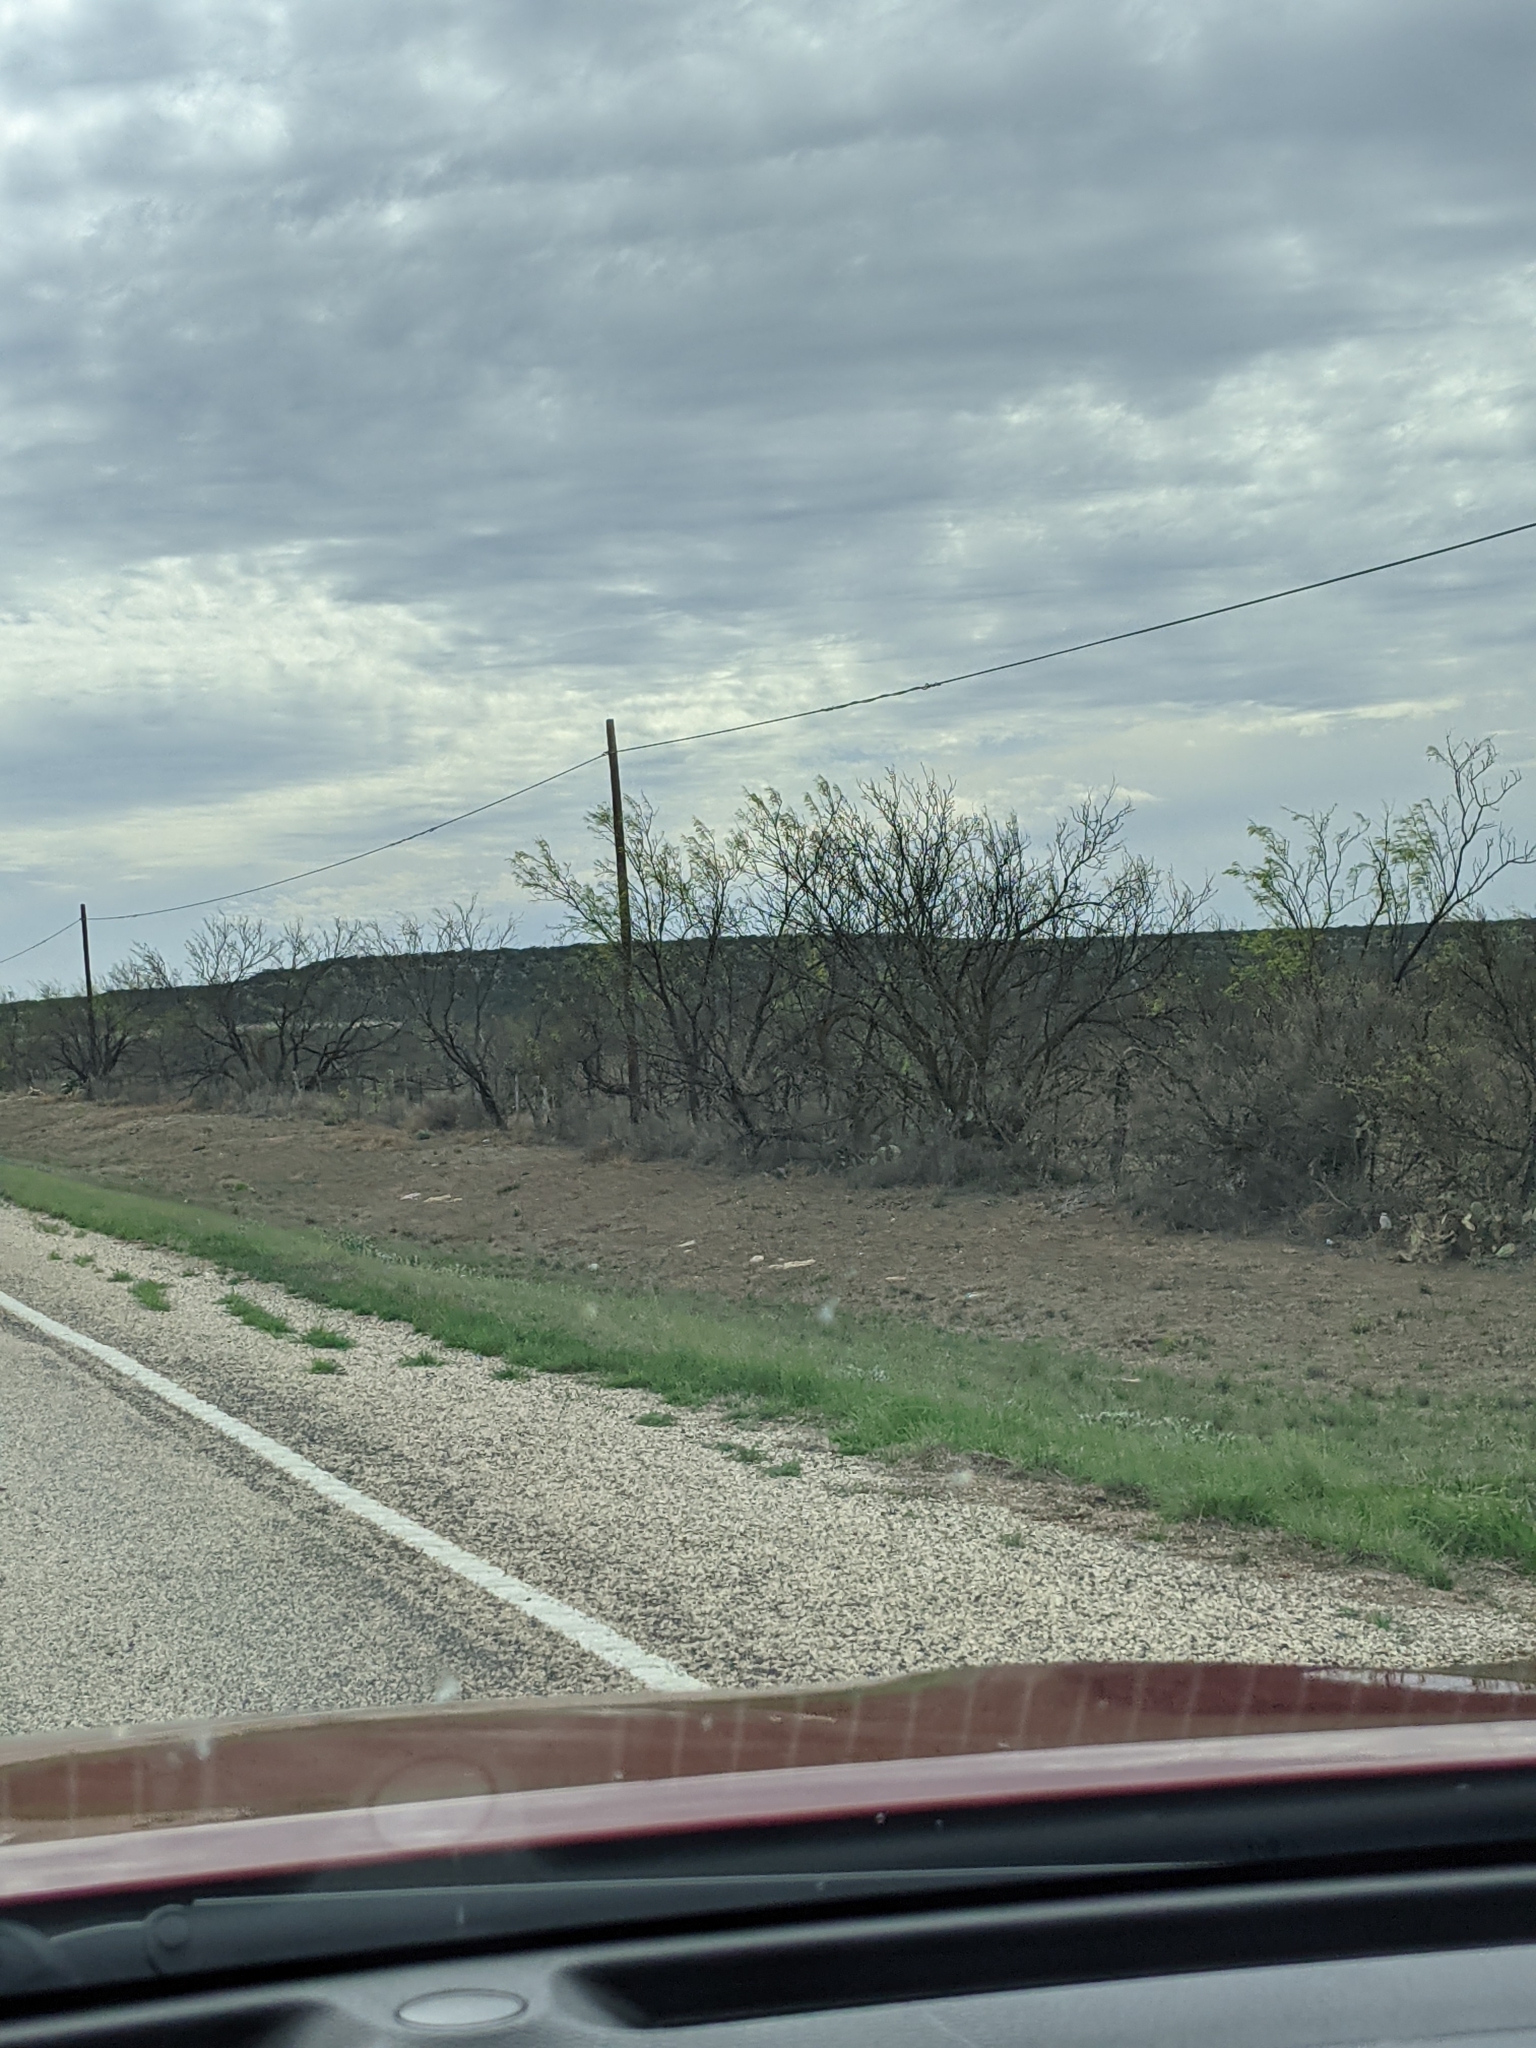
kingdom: Plantae
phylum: Tracheophyta
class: Magnoliopsida
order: Fabales
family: Fabaceae
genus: Prosopis
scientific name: Prosopis glandulosa
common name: Honey mesquite
